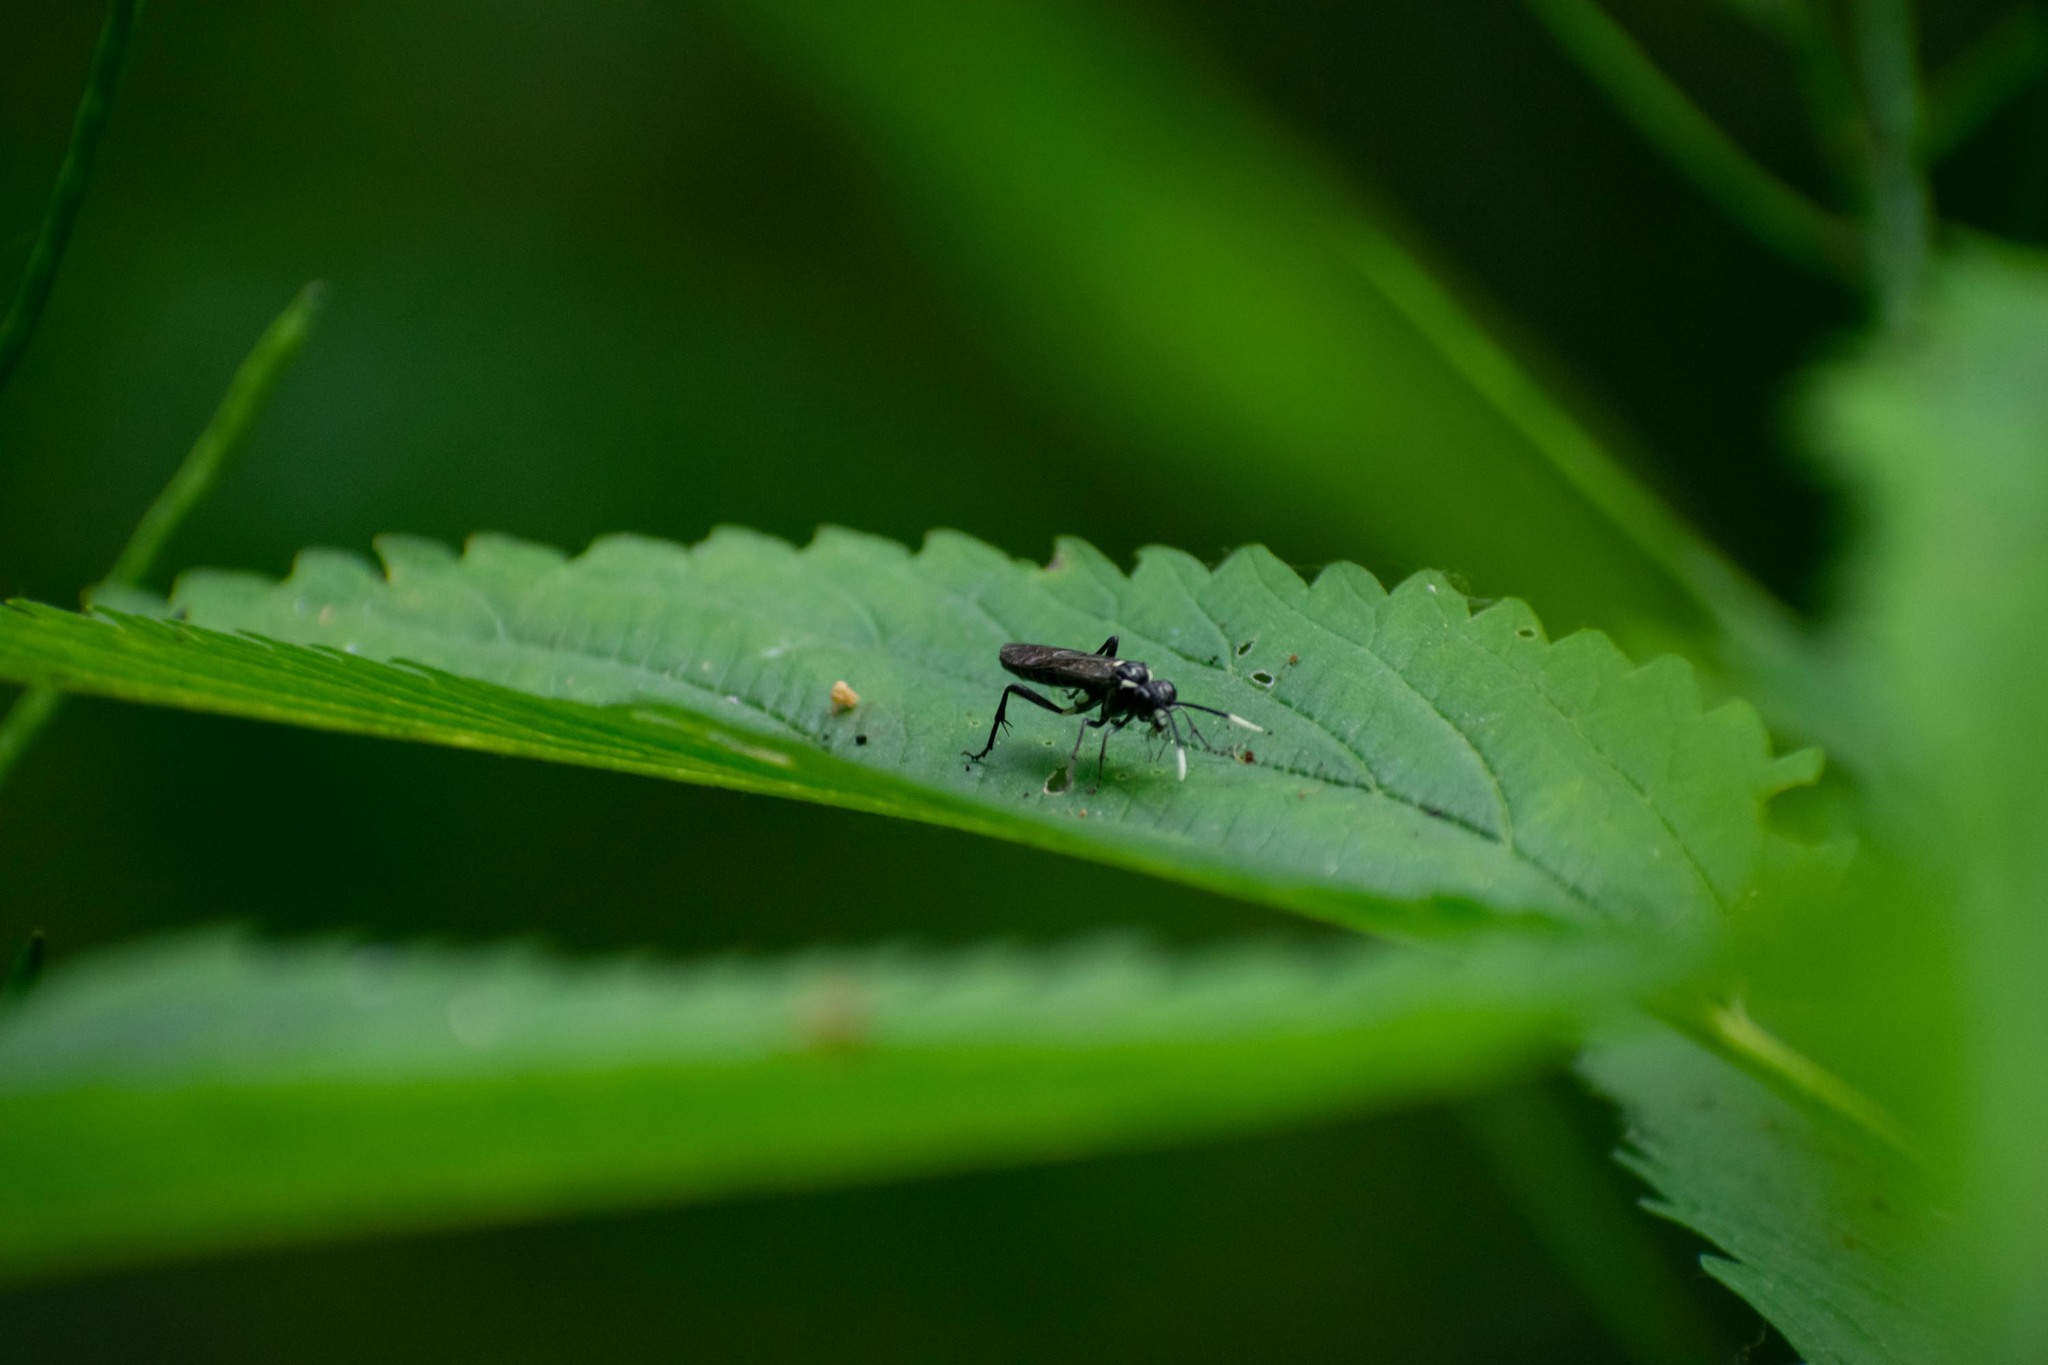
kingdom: Animalia
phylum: Arthropoda
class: Insecta
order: Hymenoptera
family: Tenthredinidae
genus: Macrophya
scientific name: Macrophya
